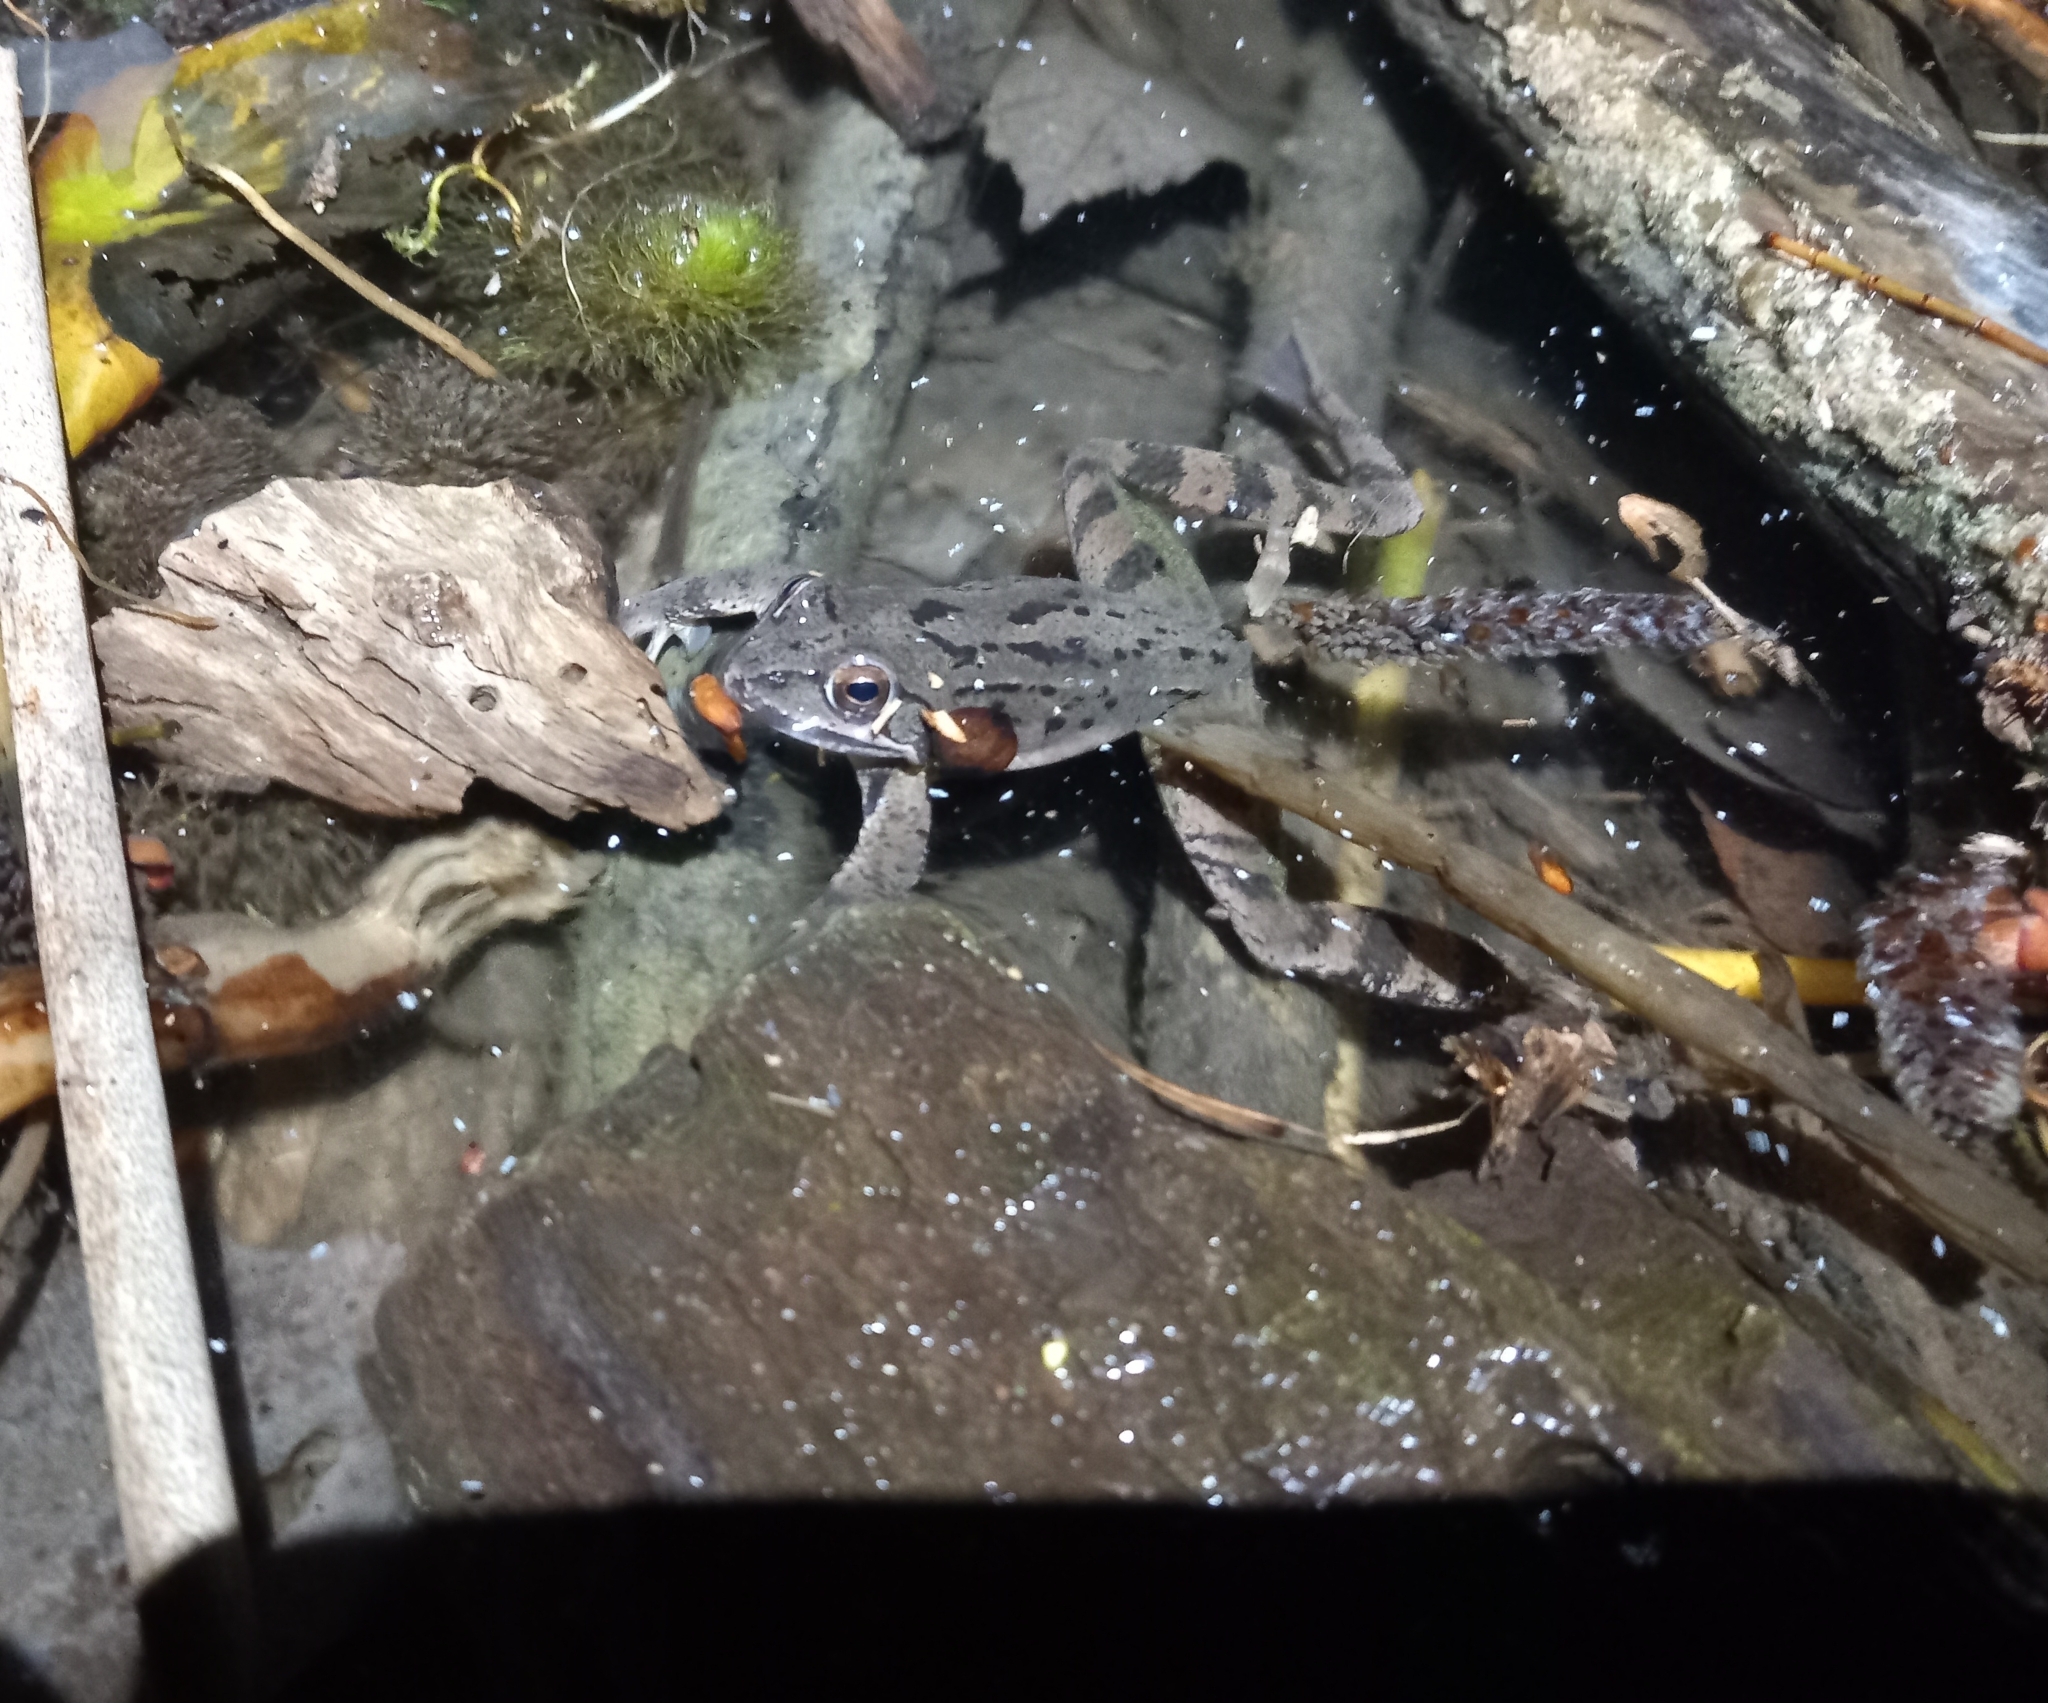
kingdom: Animalia
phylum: Chordata
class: Amphibia
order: Anura
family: Ranidae
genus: Rana
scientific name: Rana dalmatina
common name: Agile frog
